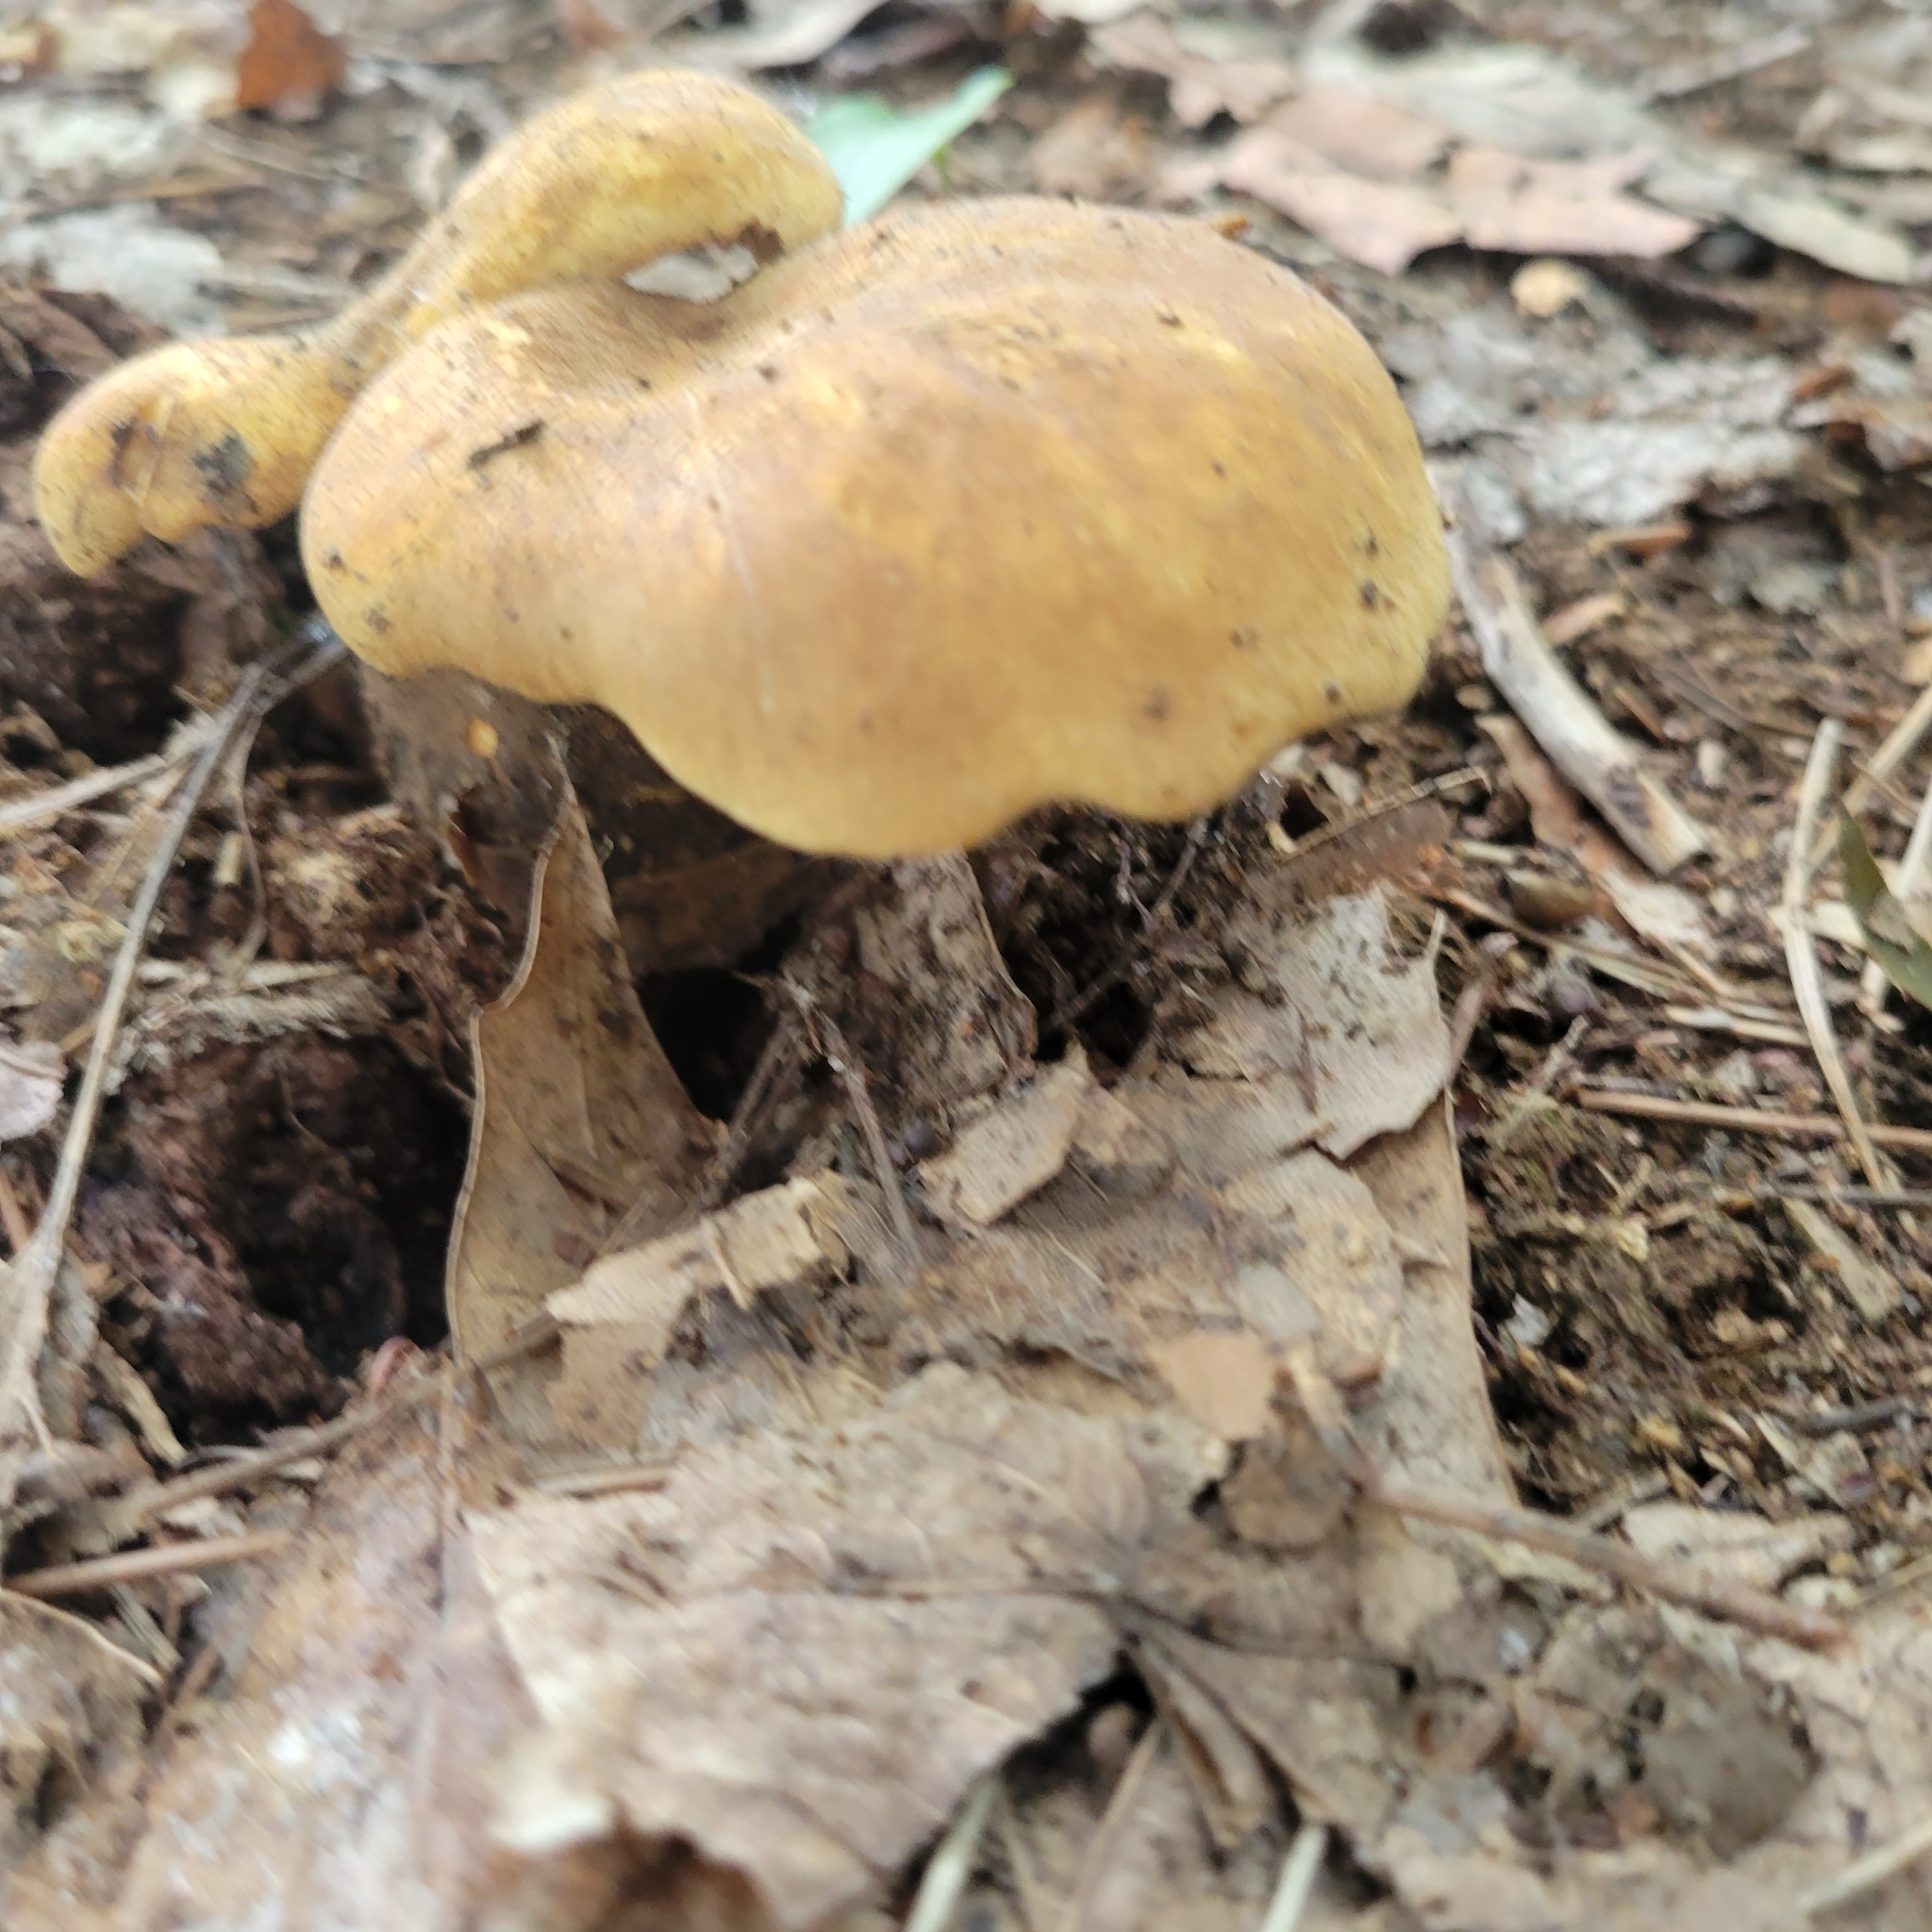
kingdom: Fungi
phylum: Basidiomycota
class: Agaricomycetes
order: Boletales
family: Tapinellaceae
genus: Tapinella
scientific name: Tapinella atrotomentosa
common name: Velvet rollrim
